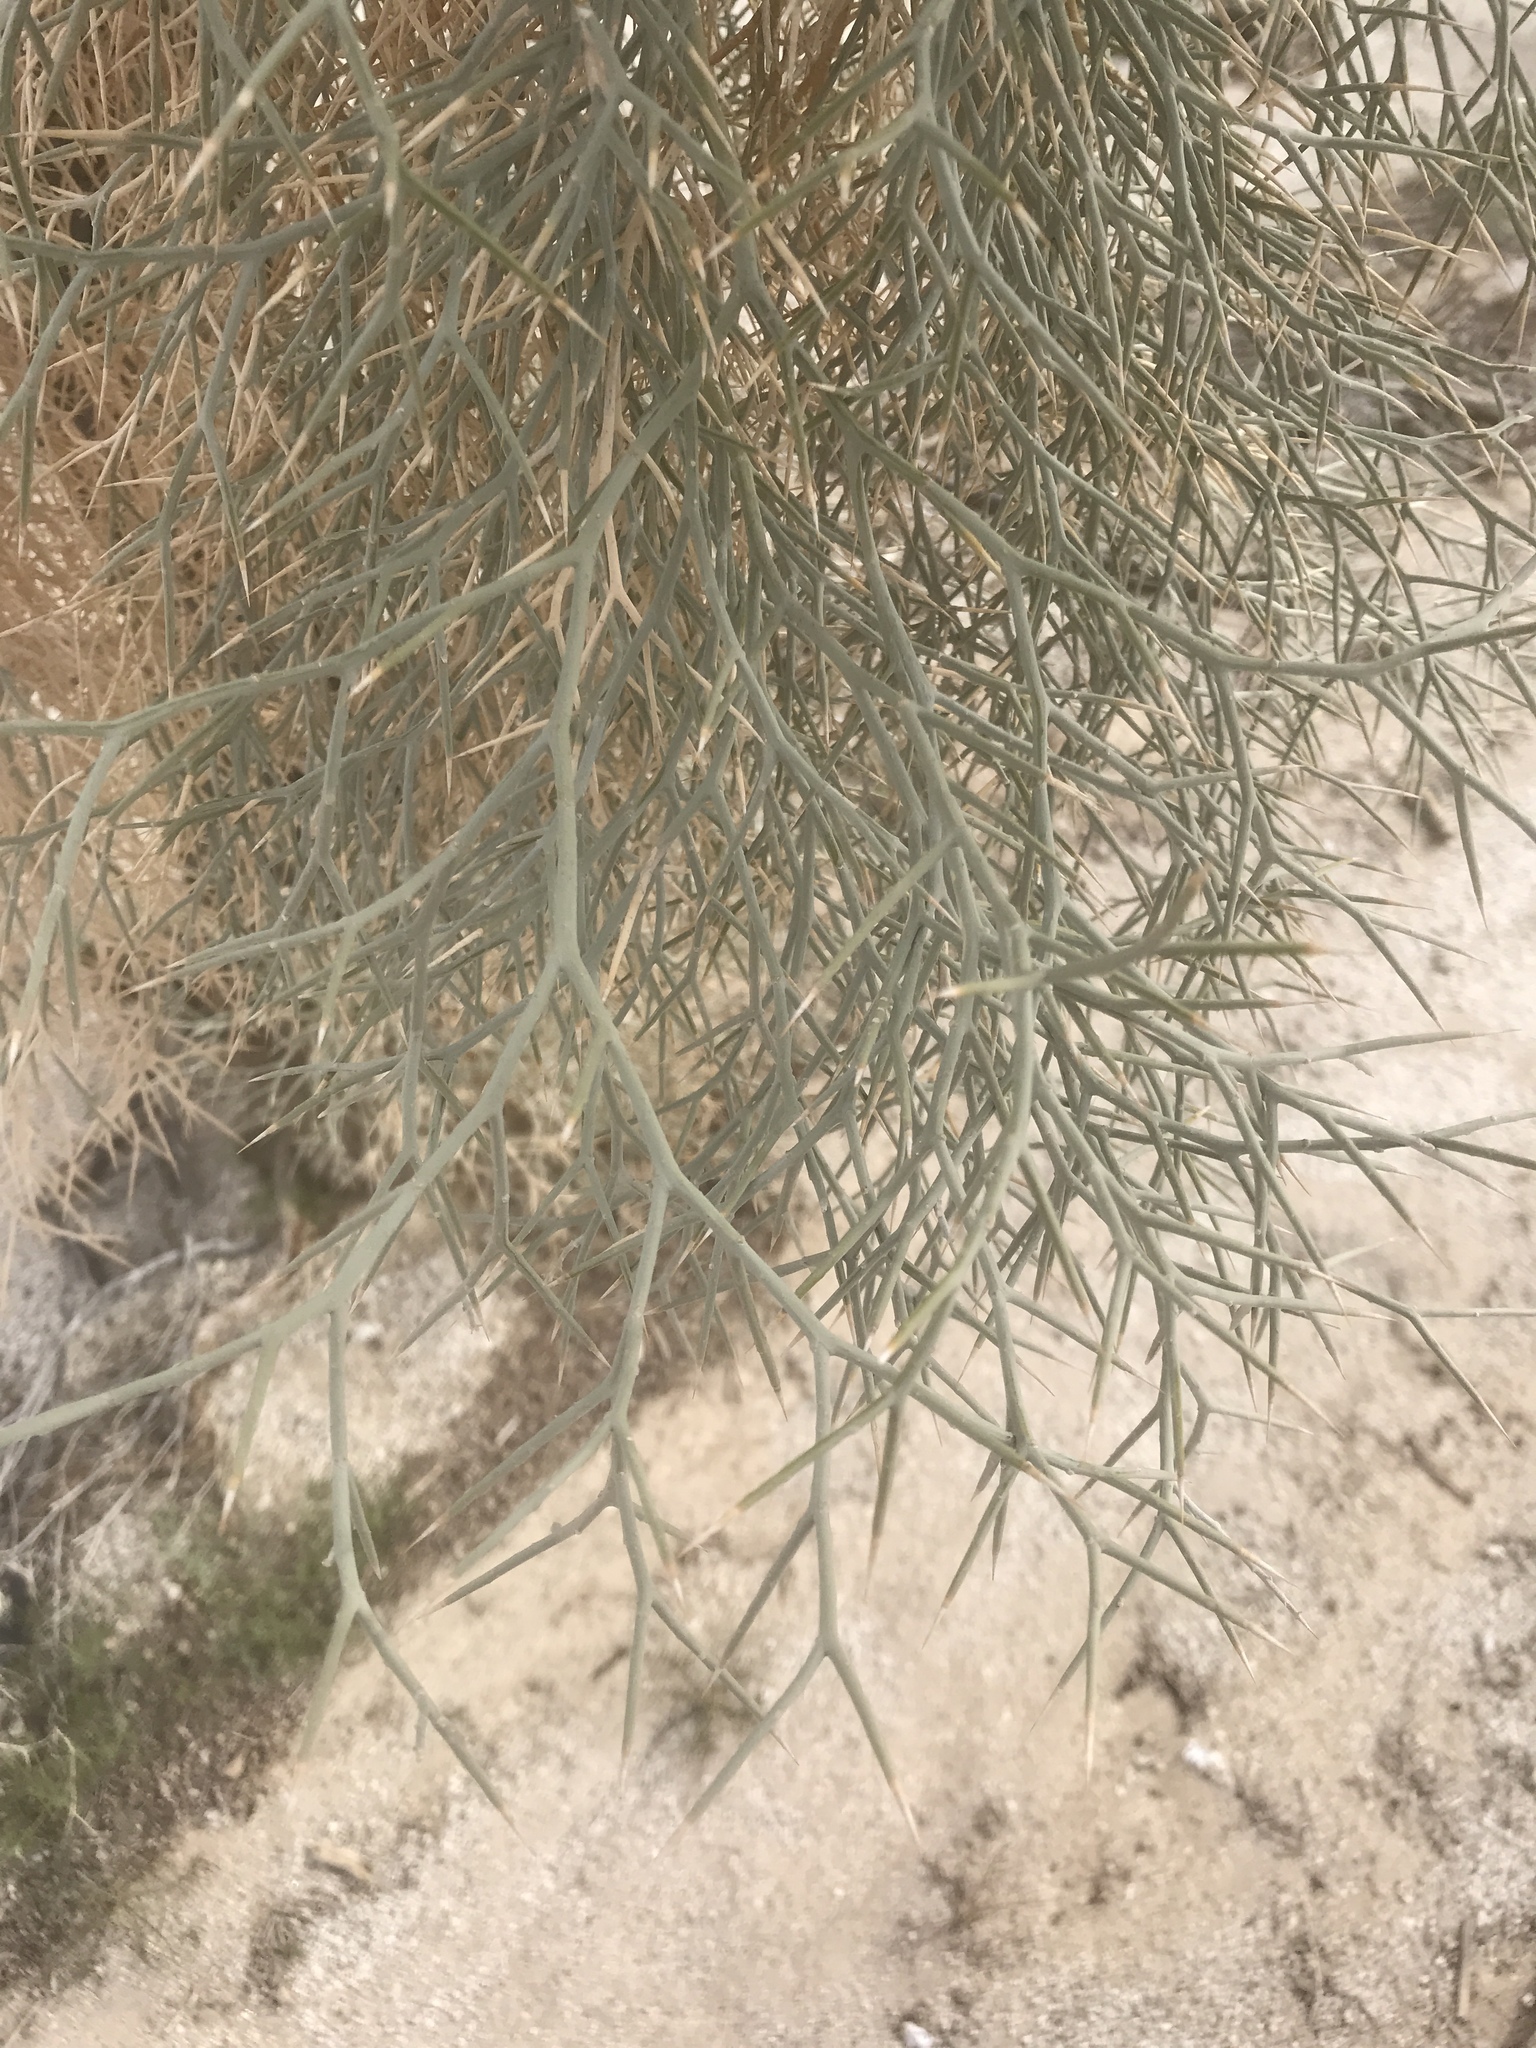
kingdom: Plantae
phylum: Tracheophyta
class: Magnoliopsida
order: Fabales
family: Fabaceae
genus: Psorothamnus
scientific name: Psorothamnus spinosus
